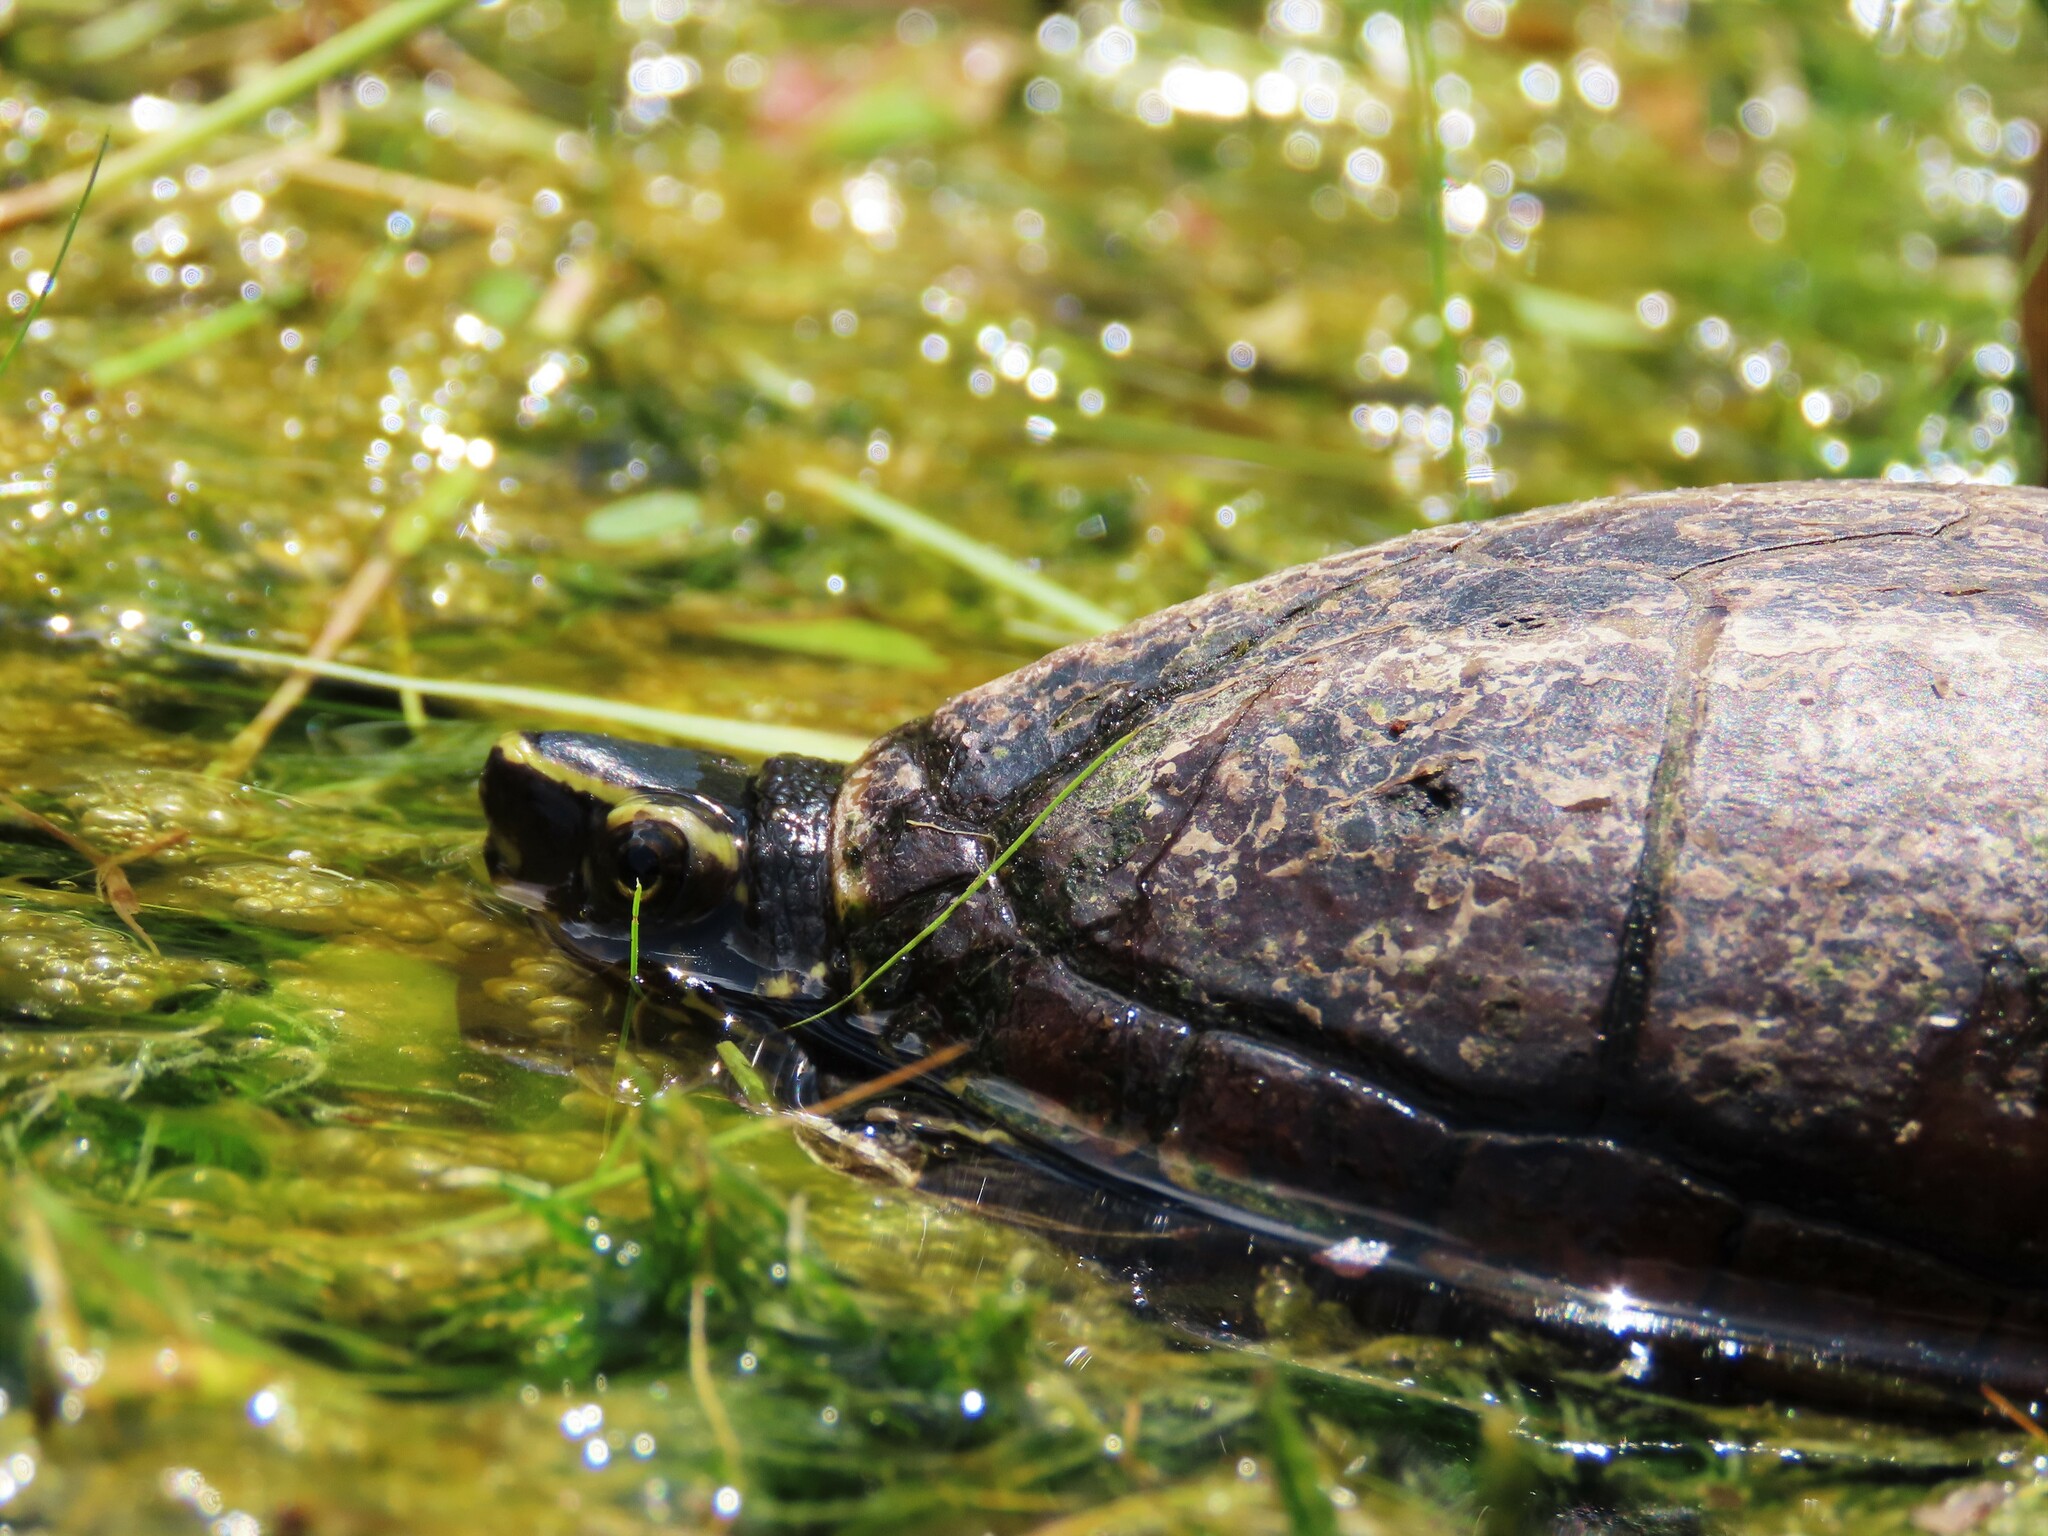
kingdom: Animalia
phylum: Chordata
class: Testudines
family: Kinosternidae
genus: Kinosternon
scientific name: Kinosternon baurii
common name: Striped mud turtle
